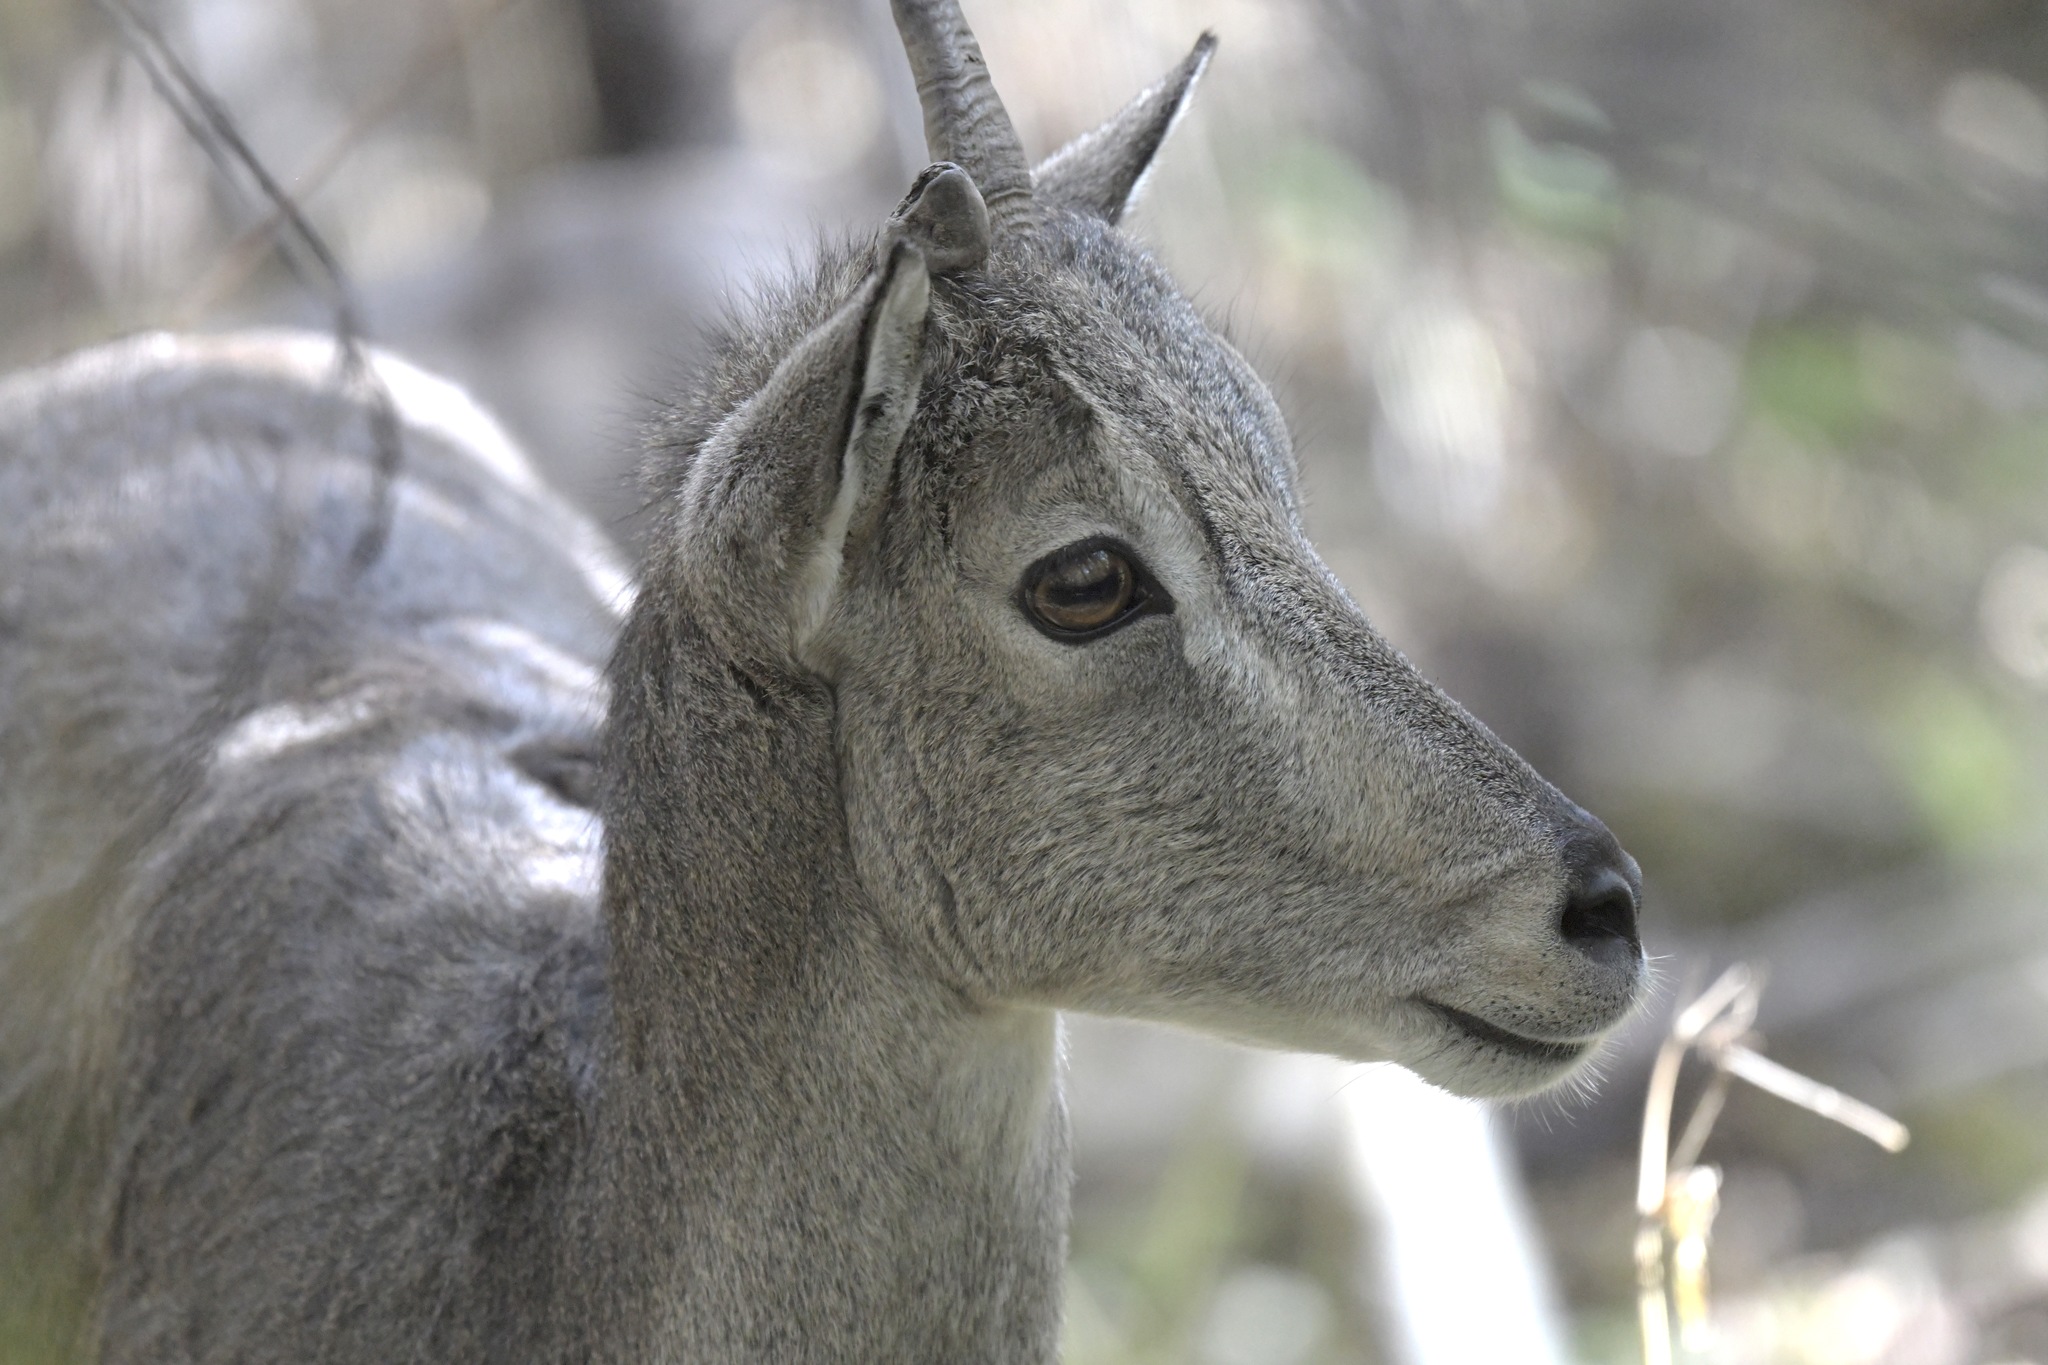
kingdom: Animalia
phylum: Chordata
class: Mammalia
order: Artiodactyla
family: Bovidae
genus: Pseudois
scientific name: Pseudois nayaur
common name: Bharal
